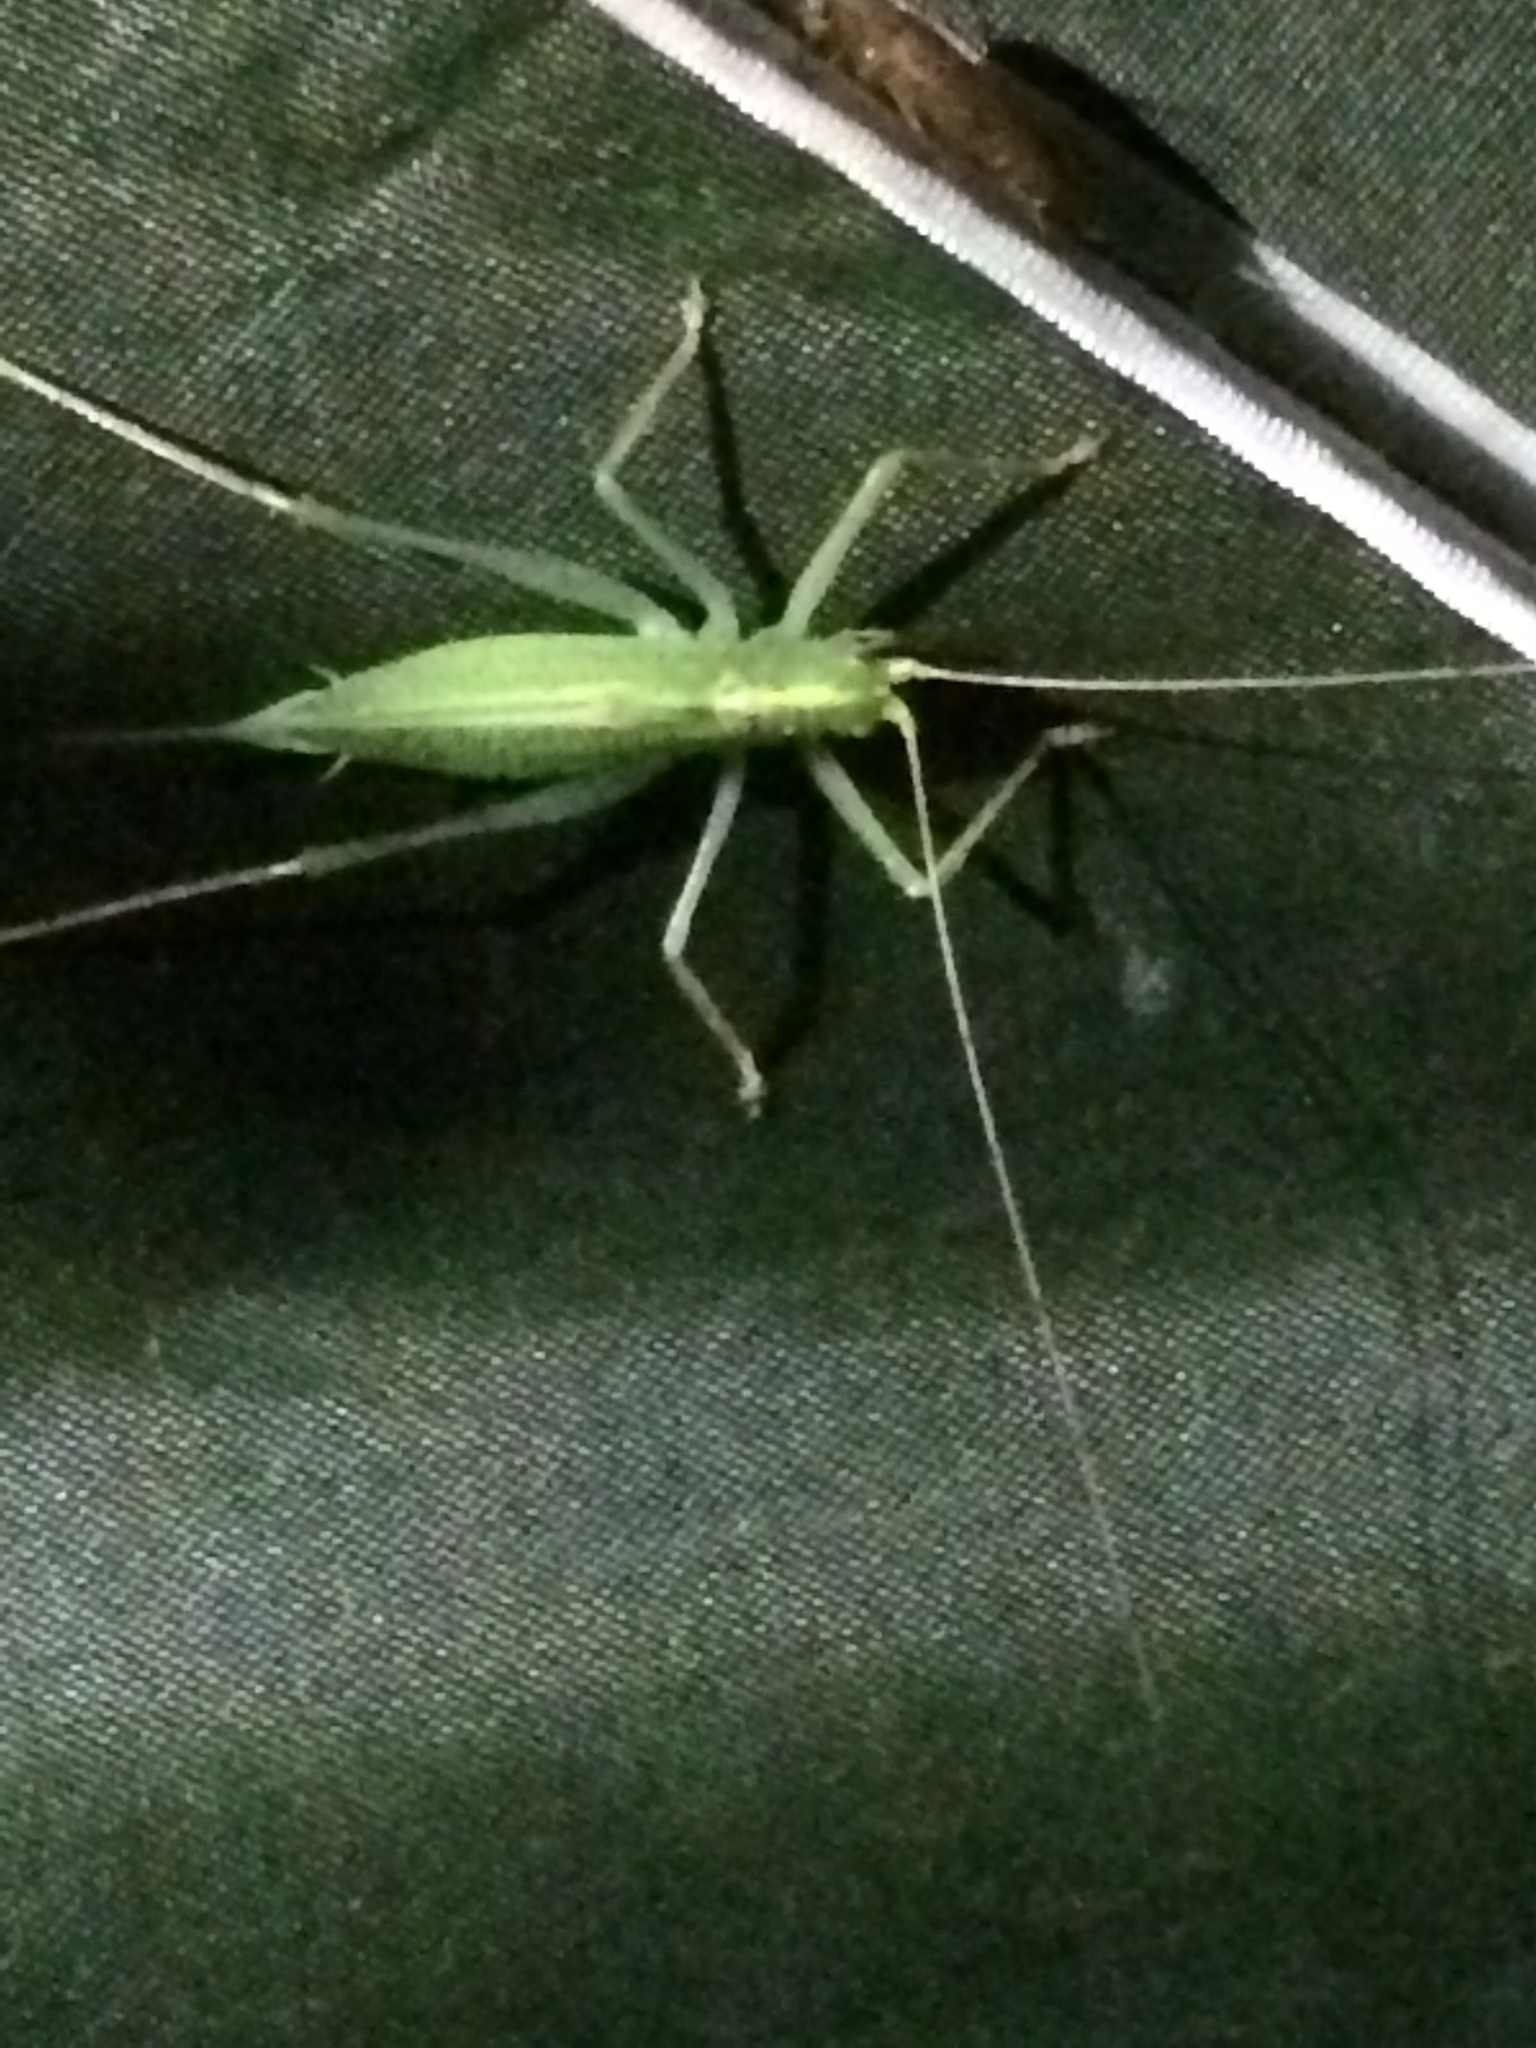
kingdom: Animalia
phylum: Arthropoda
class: Insecta
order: Orthoptera
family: Tettigoniidae
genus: Meconema
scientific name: Meconema thalassinum
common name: Oak bush-cricket
